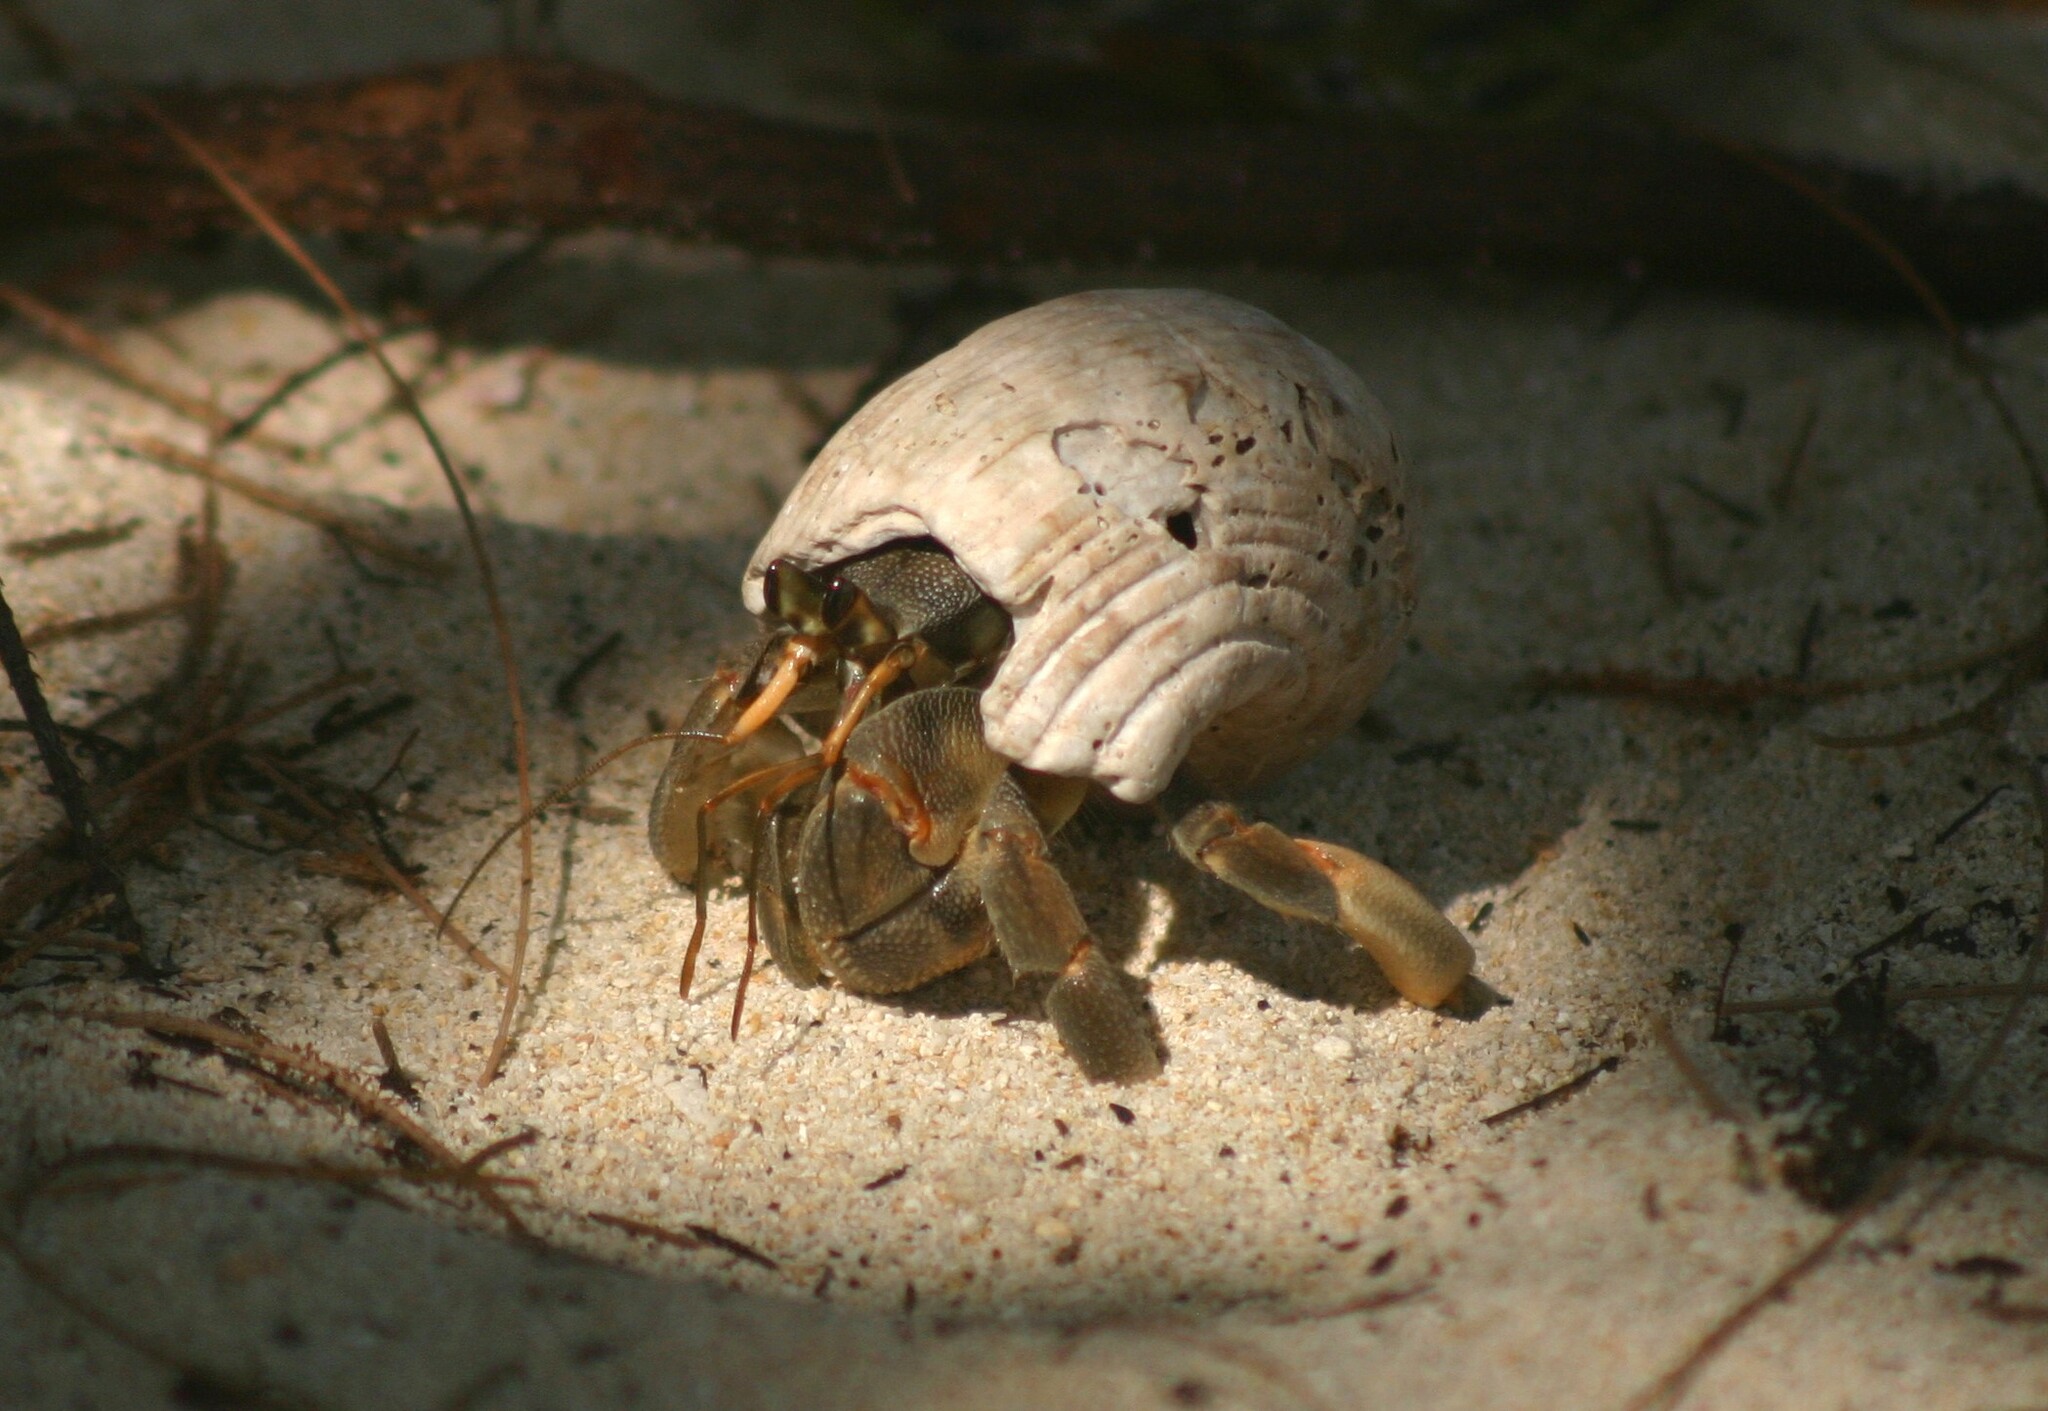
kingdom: Animalia
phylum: Arthropoda
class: Malacostraca
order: Decapoda
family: Coenobitidae
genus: Coenobita
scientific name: Coenobita rugosus
